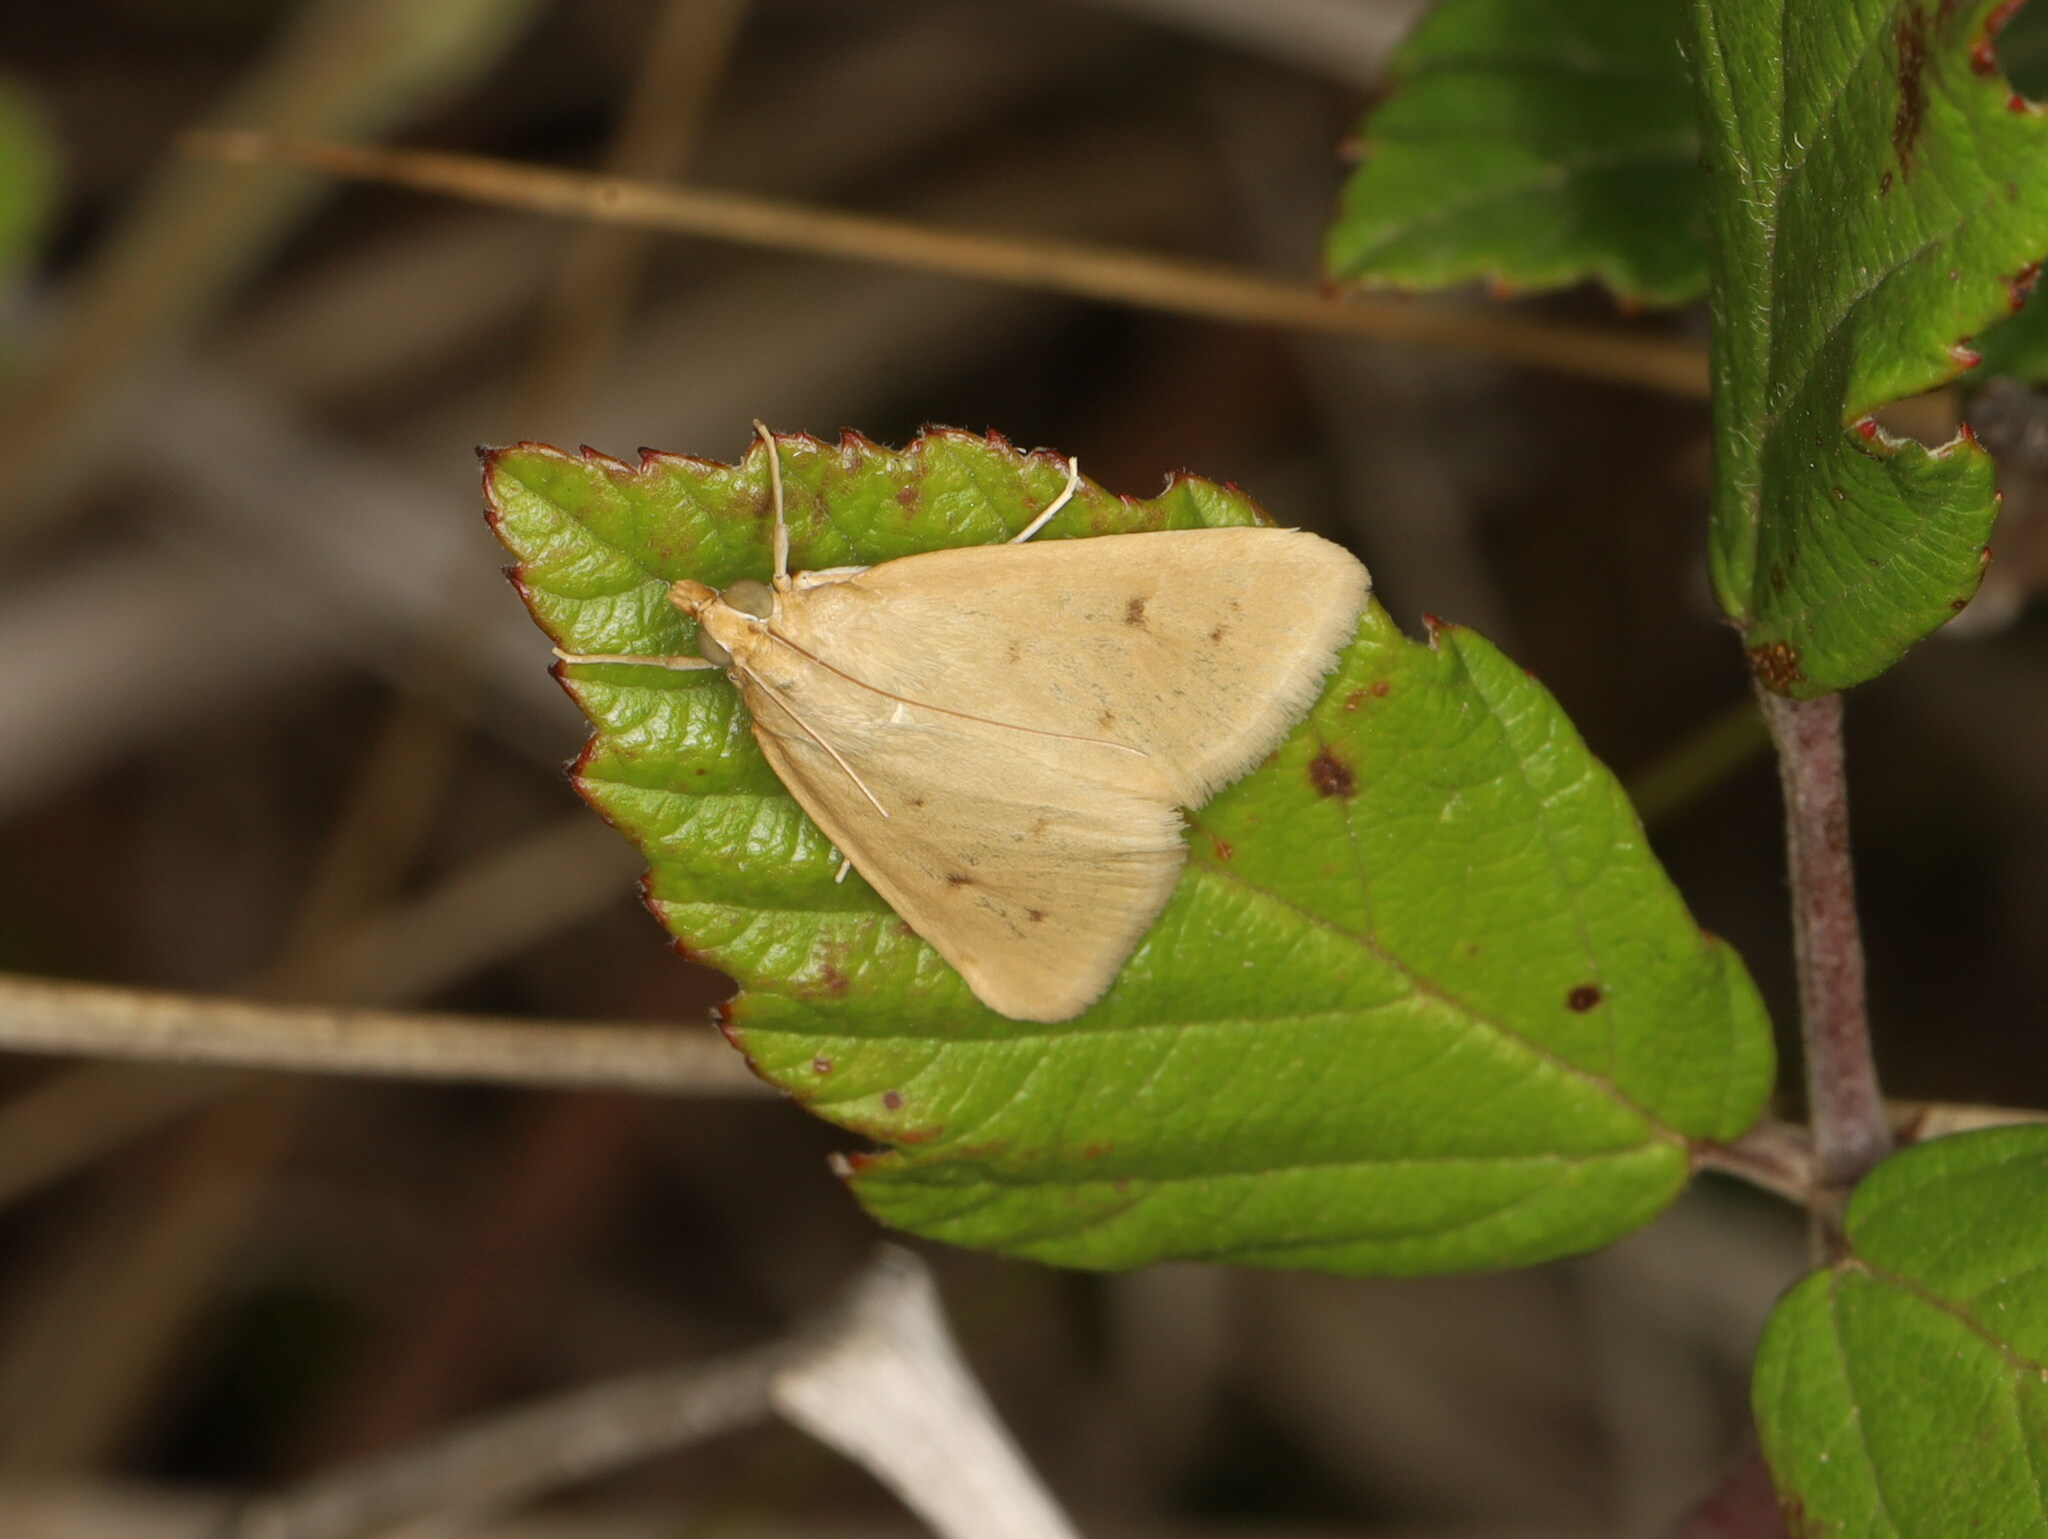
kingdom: Animalia
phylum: Arthropoda
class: Insecta
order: Lepidoptera
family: Crambidae
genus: Achyra
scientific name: Achyra nudalis
